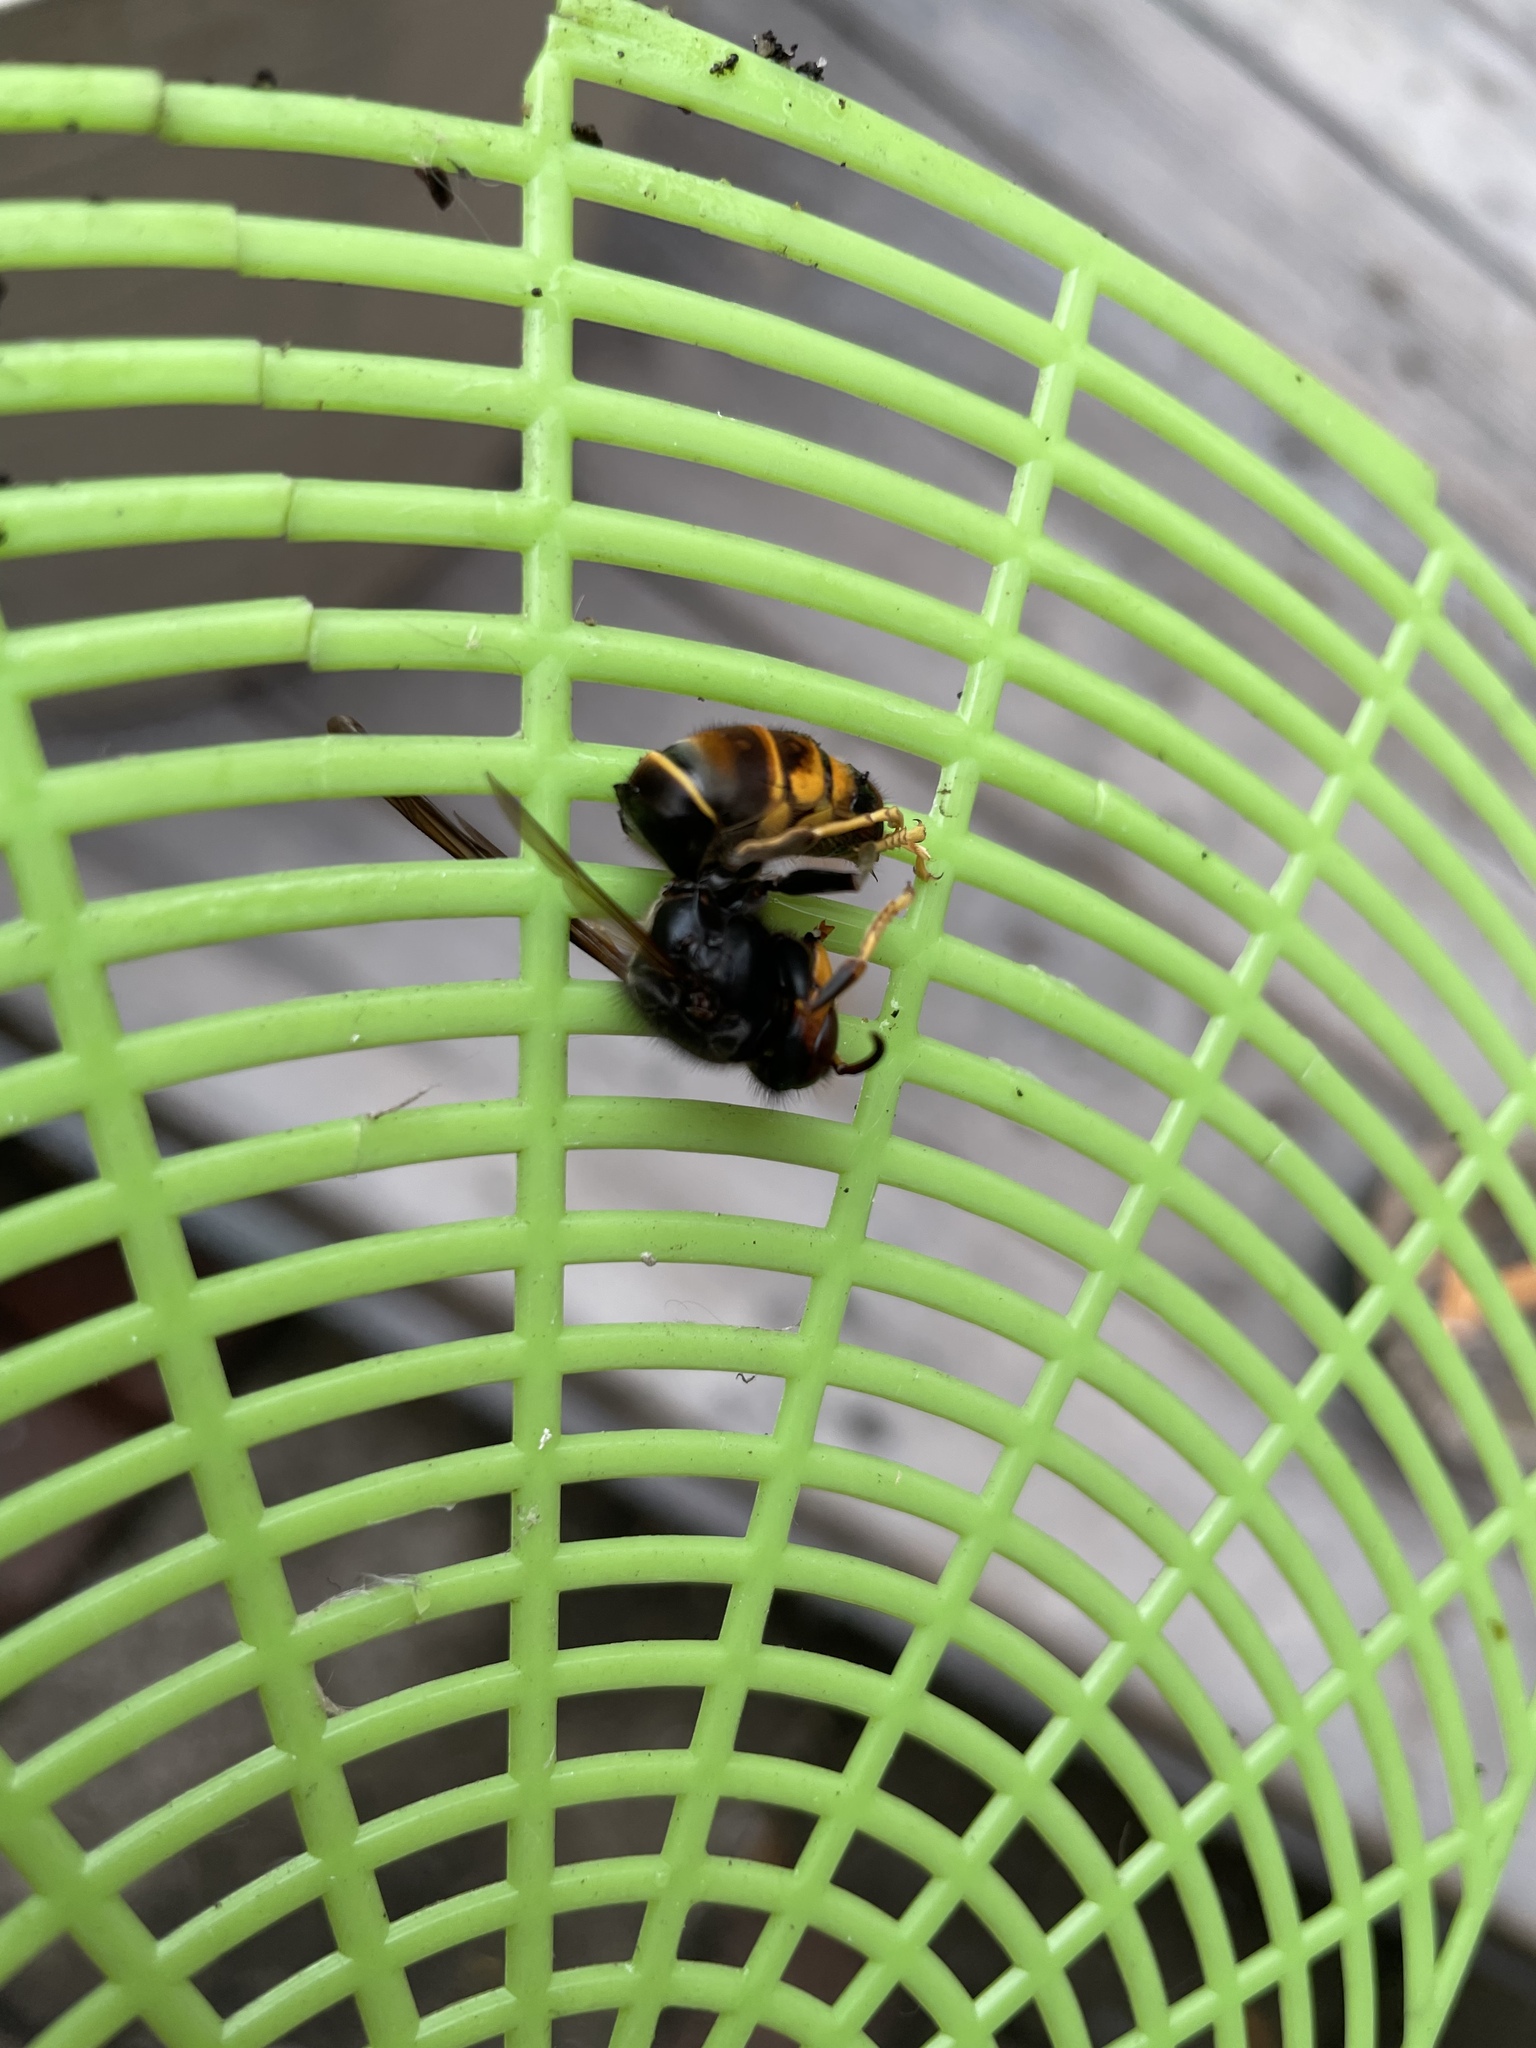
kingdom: Animalia
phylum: Arthropoda
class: Insecta
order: Hymenoptera
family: Vespidae
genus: Vespa
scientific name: Vespa velutina
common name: Asian hornet
